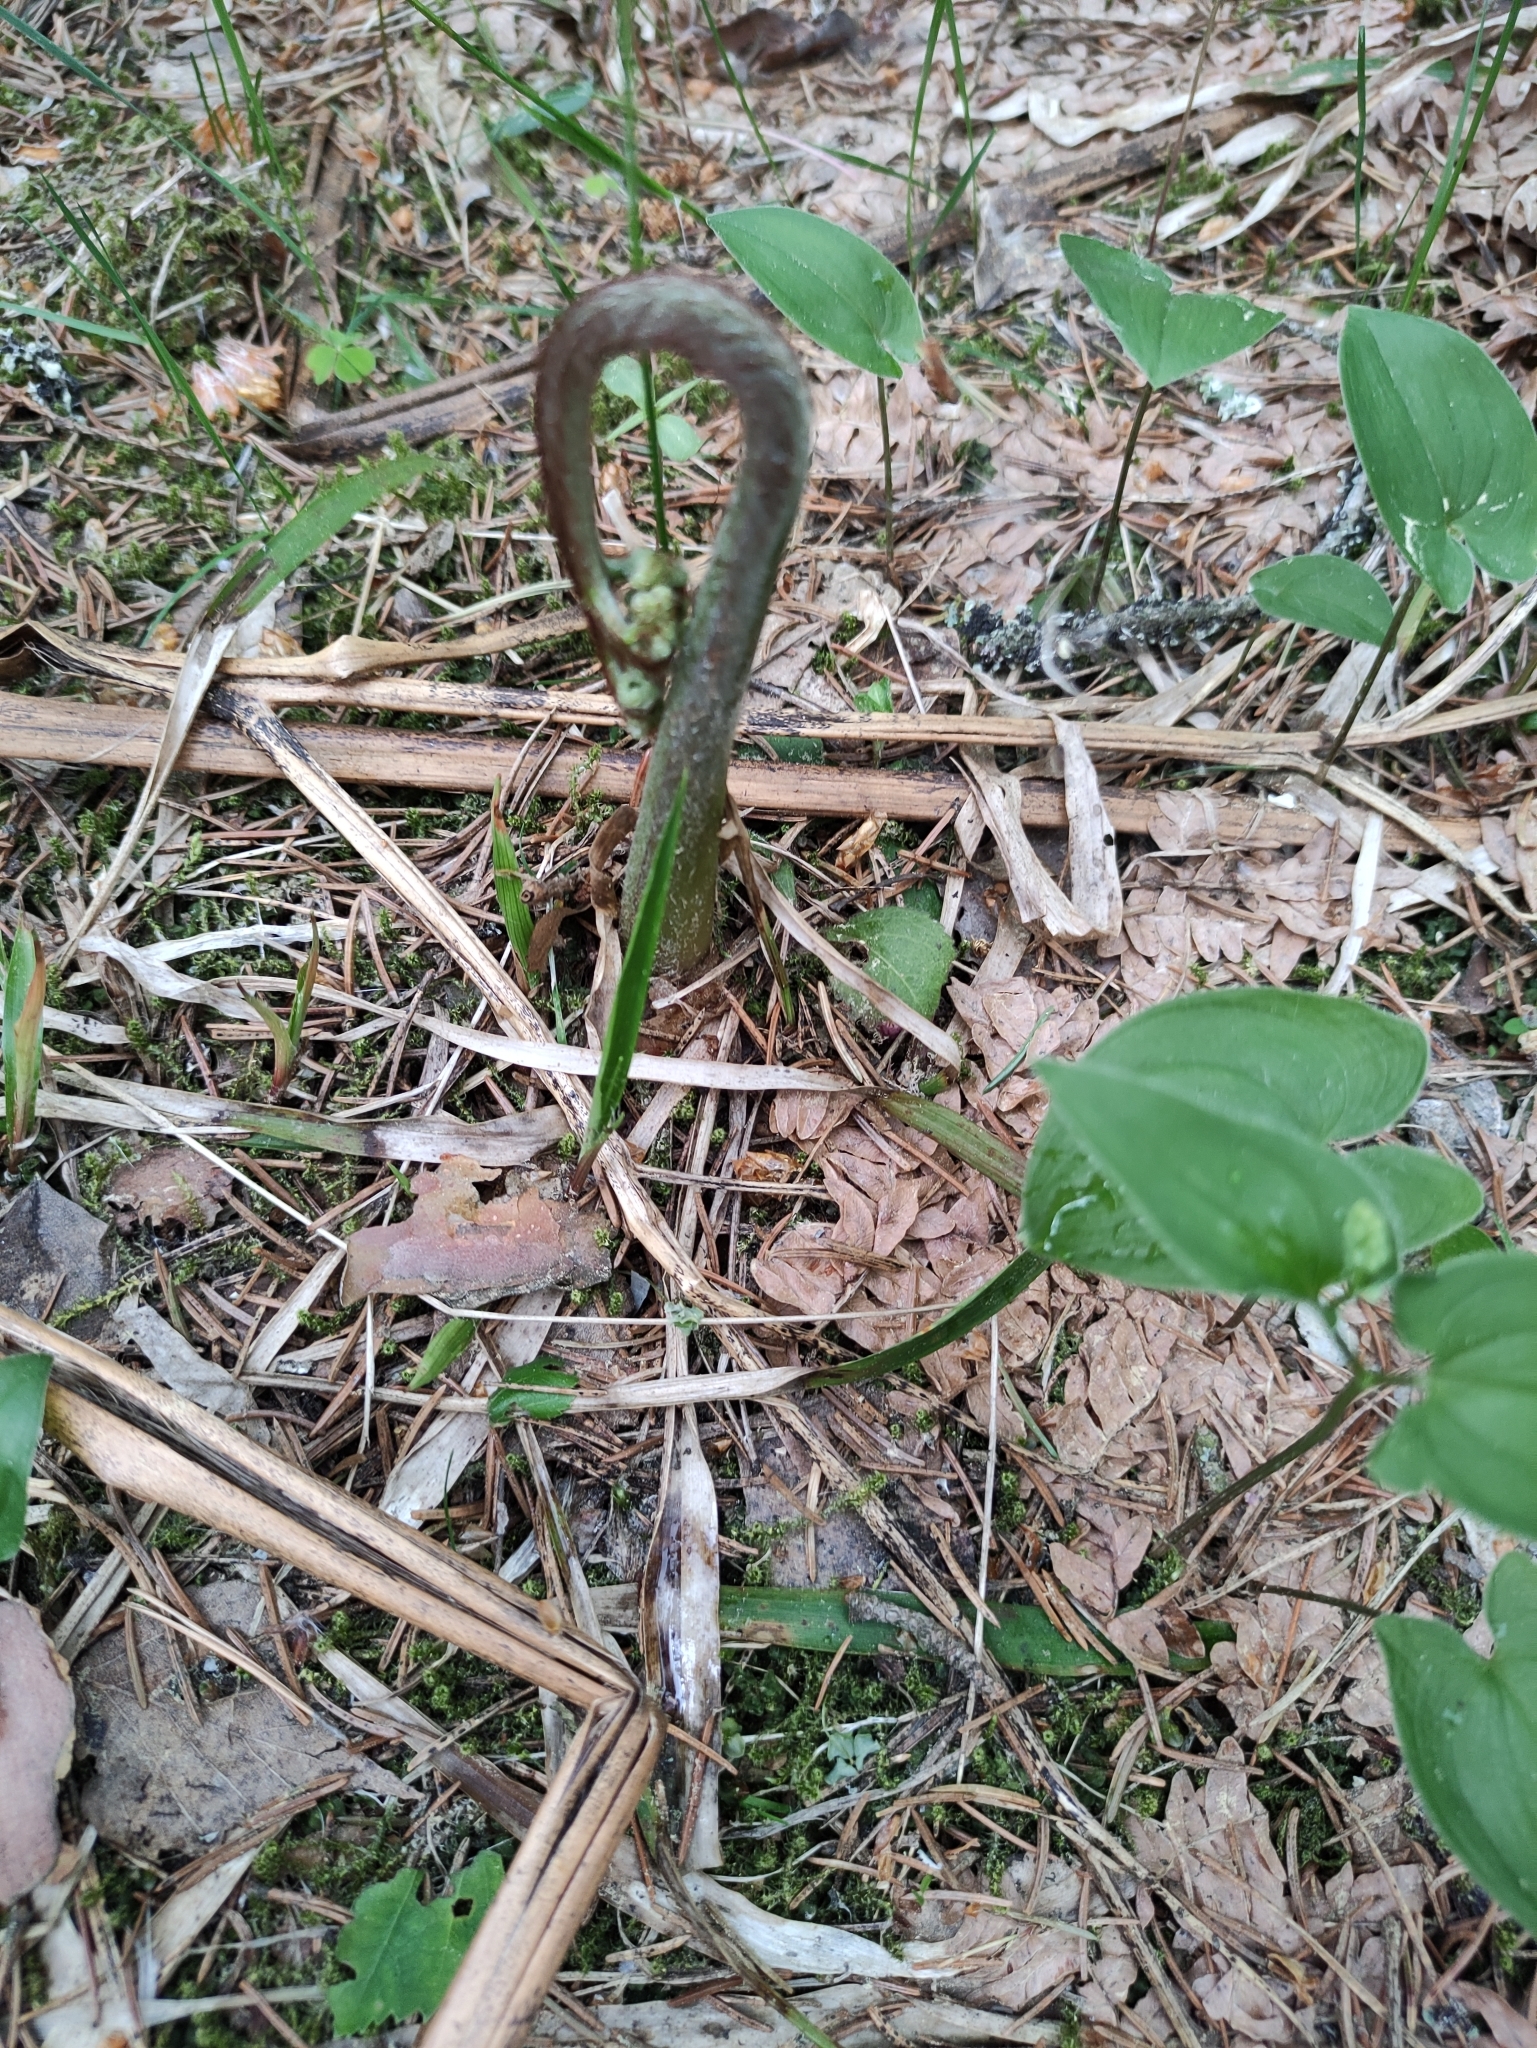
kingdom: Plantae
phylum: Tracheophyta
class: Polypodiopsida
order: Polypodiales
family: Dennstaedtiaceae
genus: Pteridium
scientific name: Pteridium aquilinum
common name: Bracken
